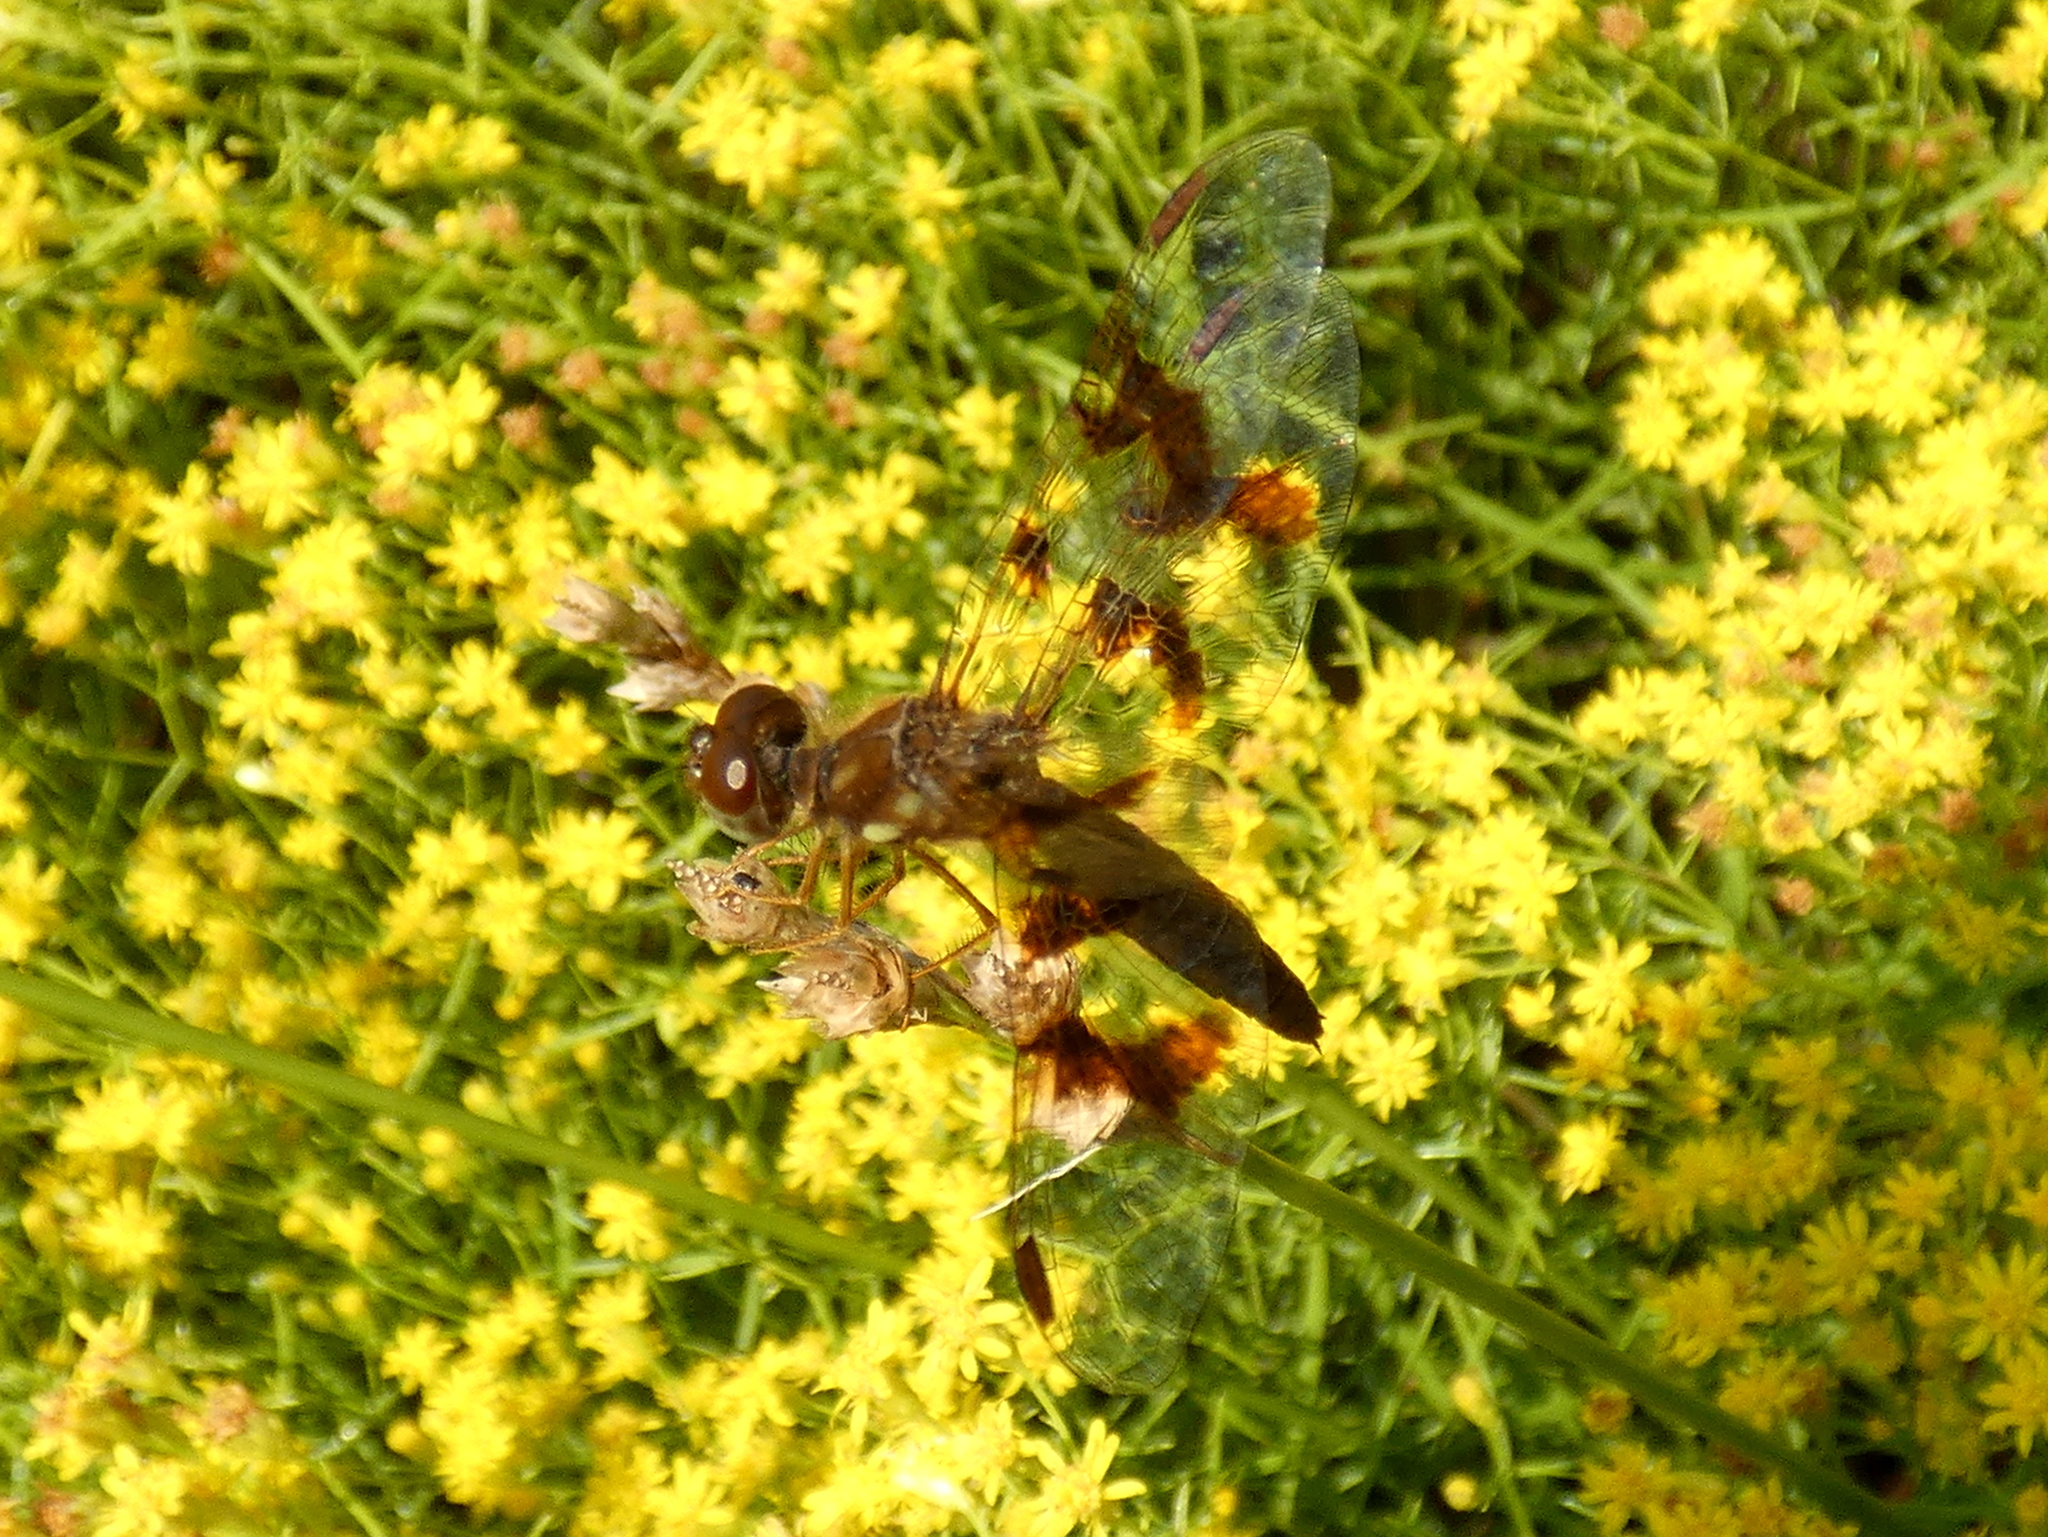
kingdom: Animalia
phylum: Arthropoda
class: Insecta
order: Odonata
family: Libellulidae
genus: Perithemis
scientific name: Perithemis tenera
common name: Eastern amberwing
